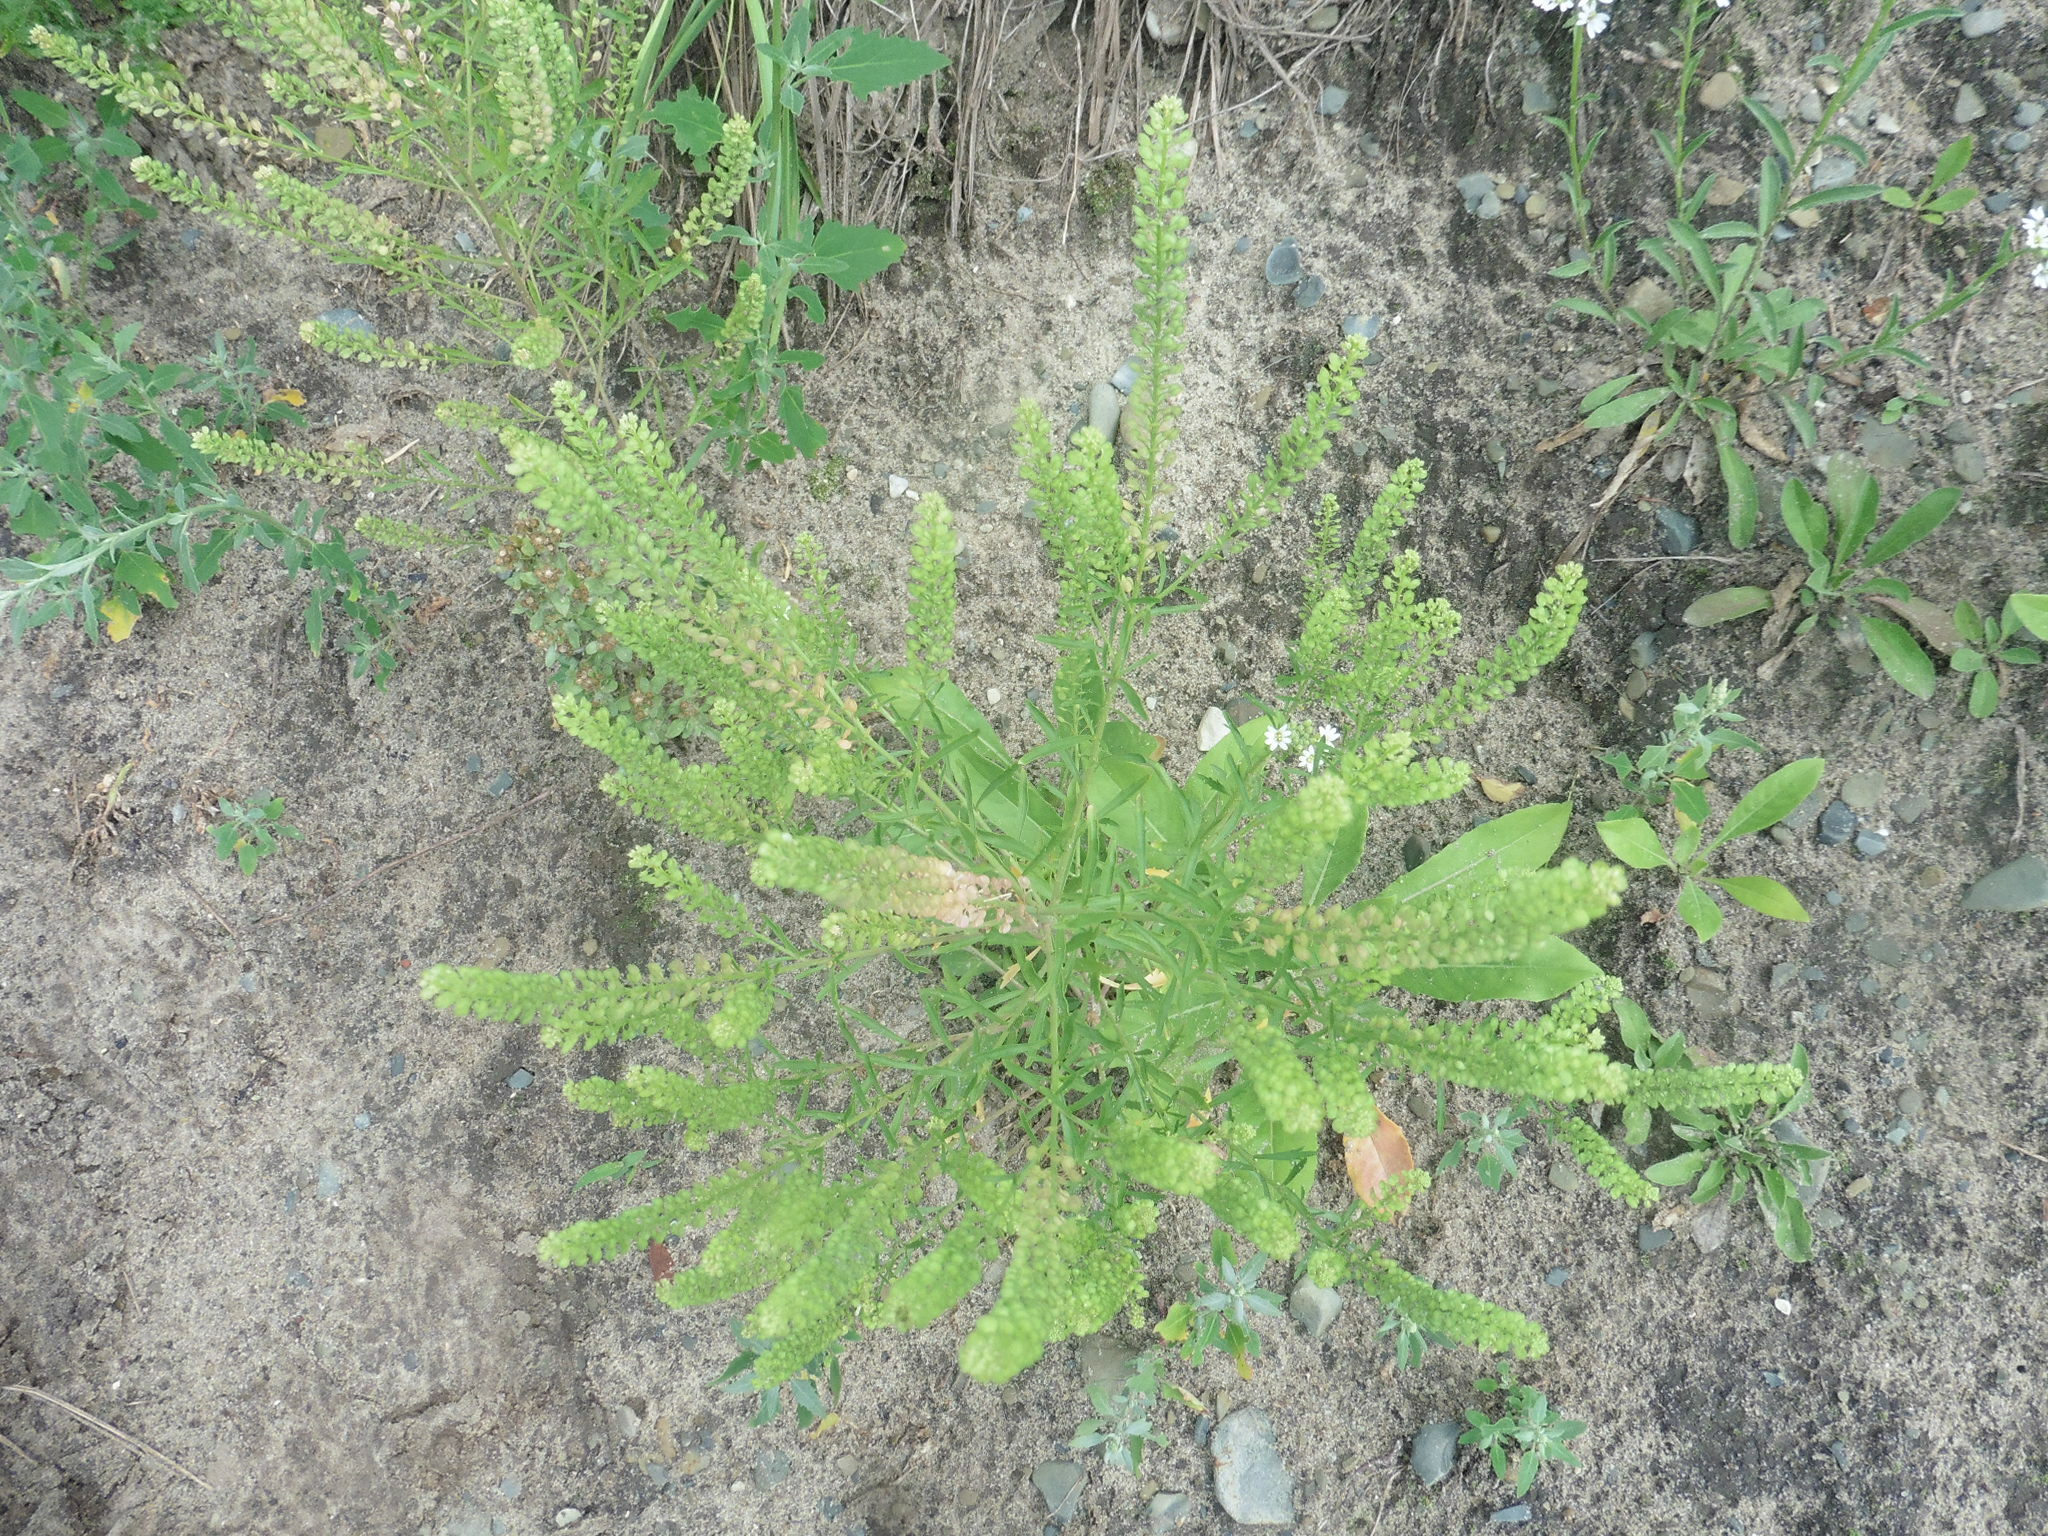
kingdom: Plantae
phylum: Tracheophyta
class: Magnoliopsida
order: Brassicales
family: Brassicaceae
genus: Lepidium
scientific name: Lepidium densiflorum
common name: Miner's pepperwort
